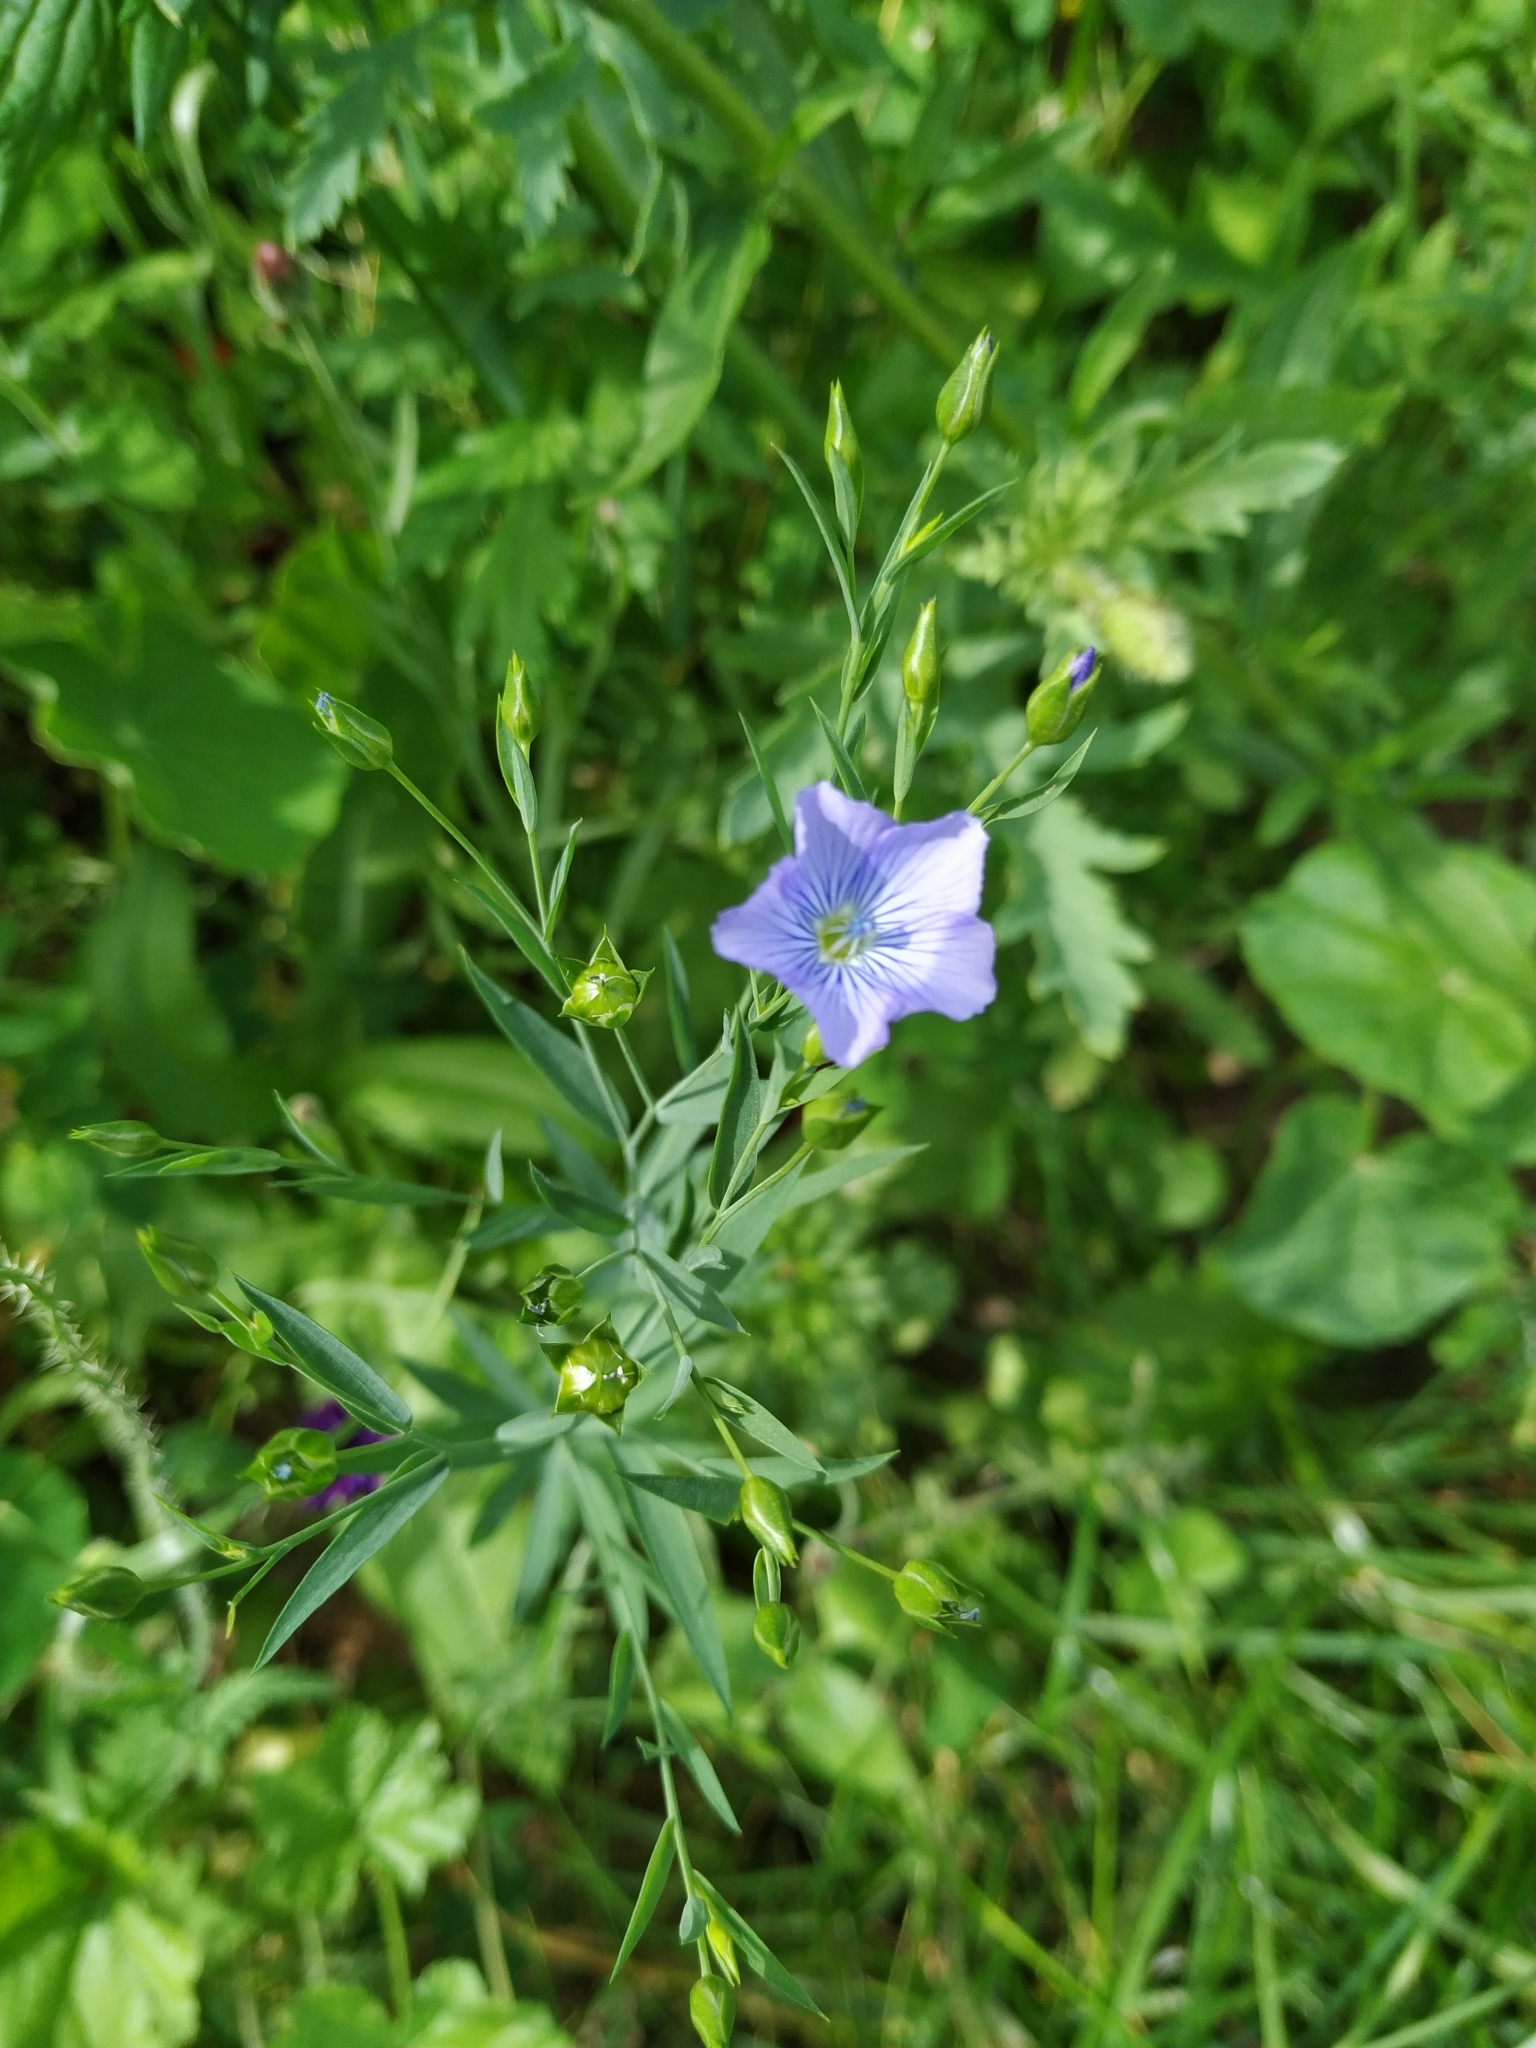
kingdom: Plantae
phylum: Tracheophyta
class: Magnoliopsida
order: Malpighiales
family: Linaceae
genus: Linum
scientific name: Linum usitatissimum
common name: Flax
